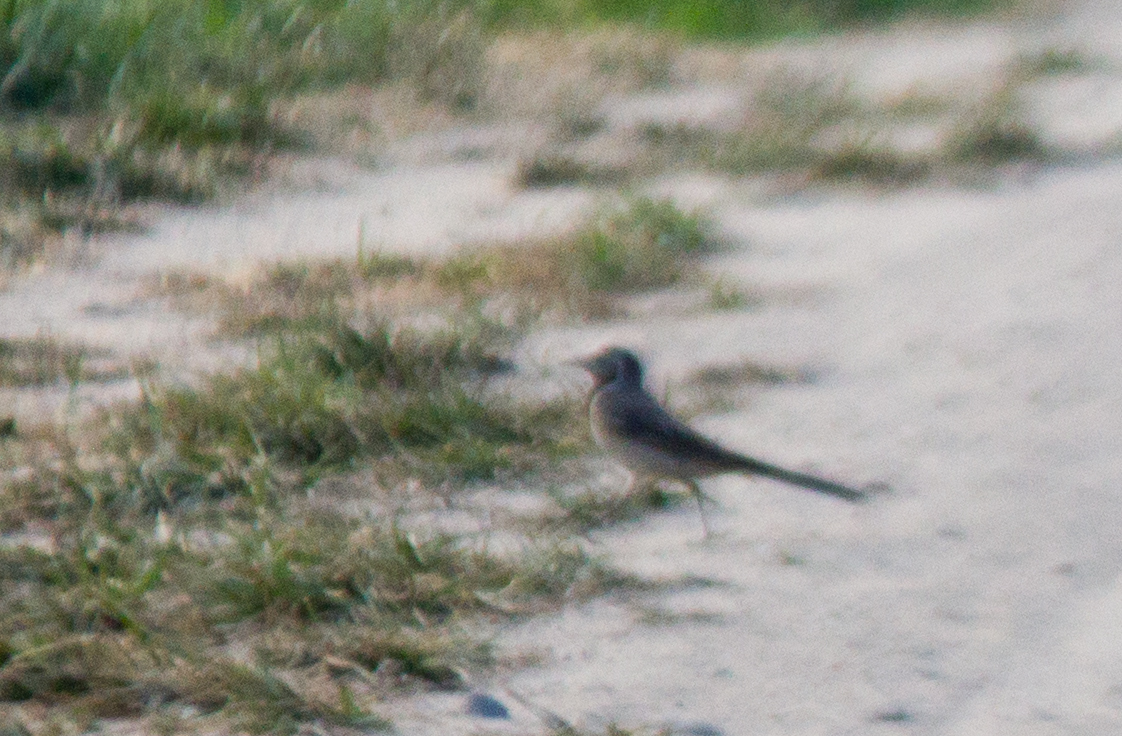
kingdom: Animalia
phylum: Chordata
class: Aves
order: Passeriformes
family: Motacillidae
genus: Motacilla
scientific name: Motacilla alba
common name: White wagtail
